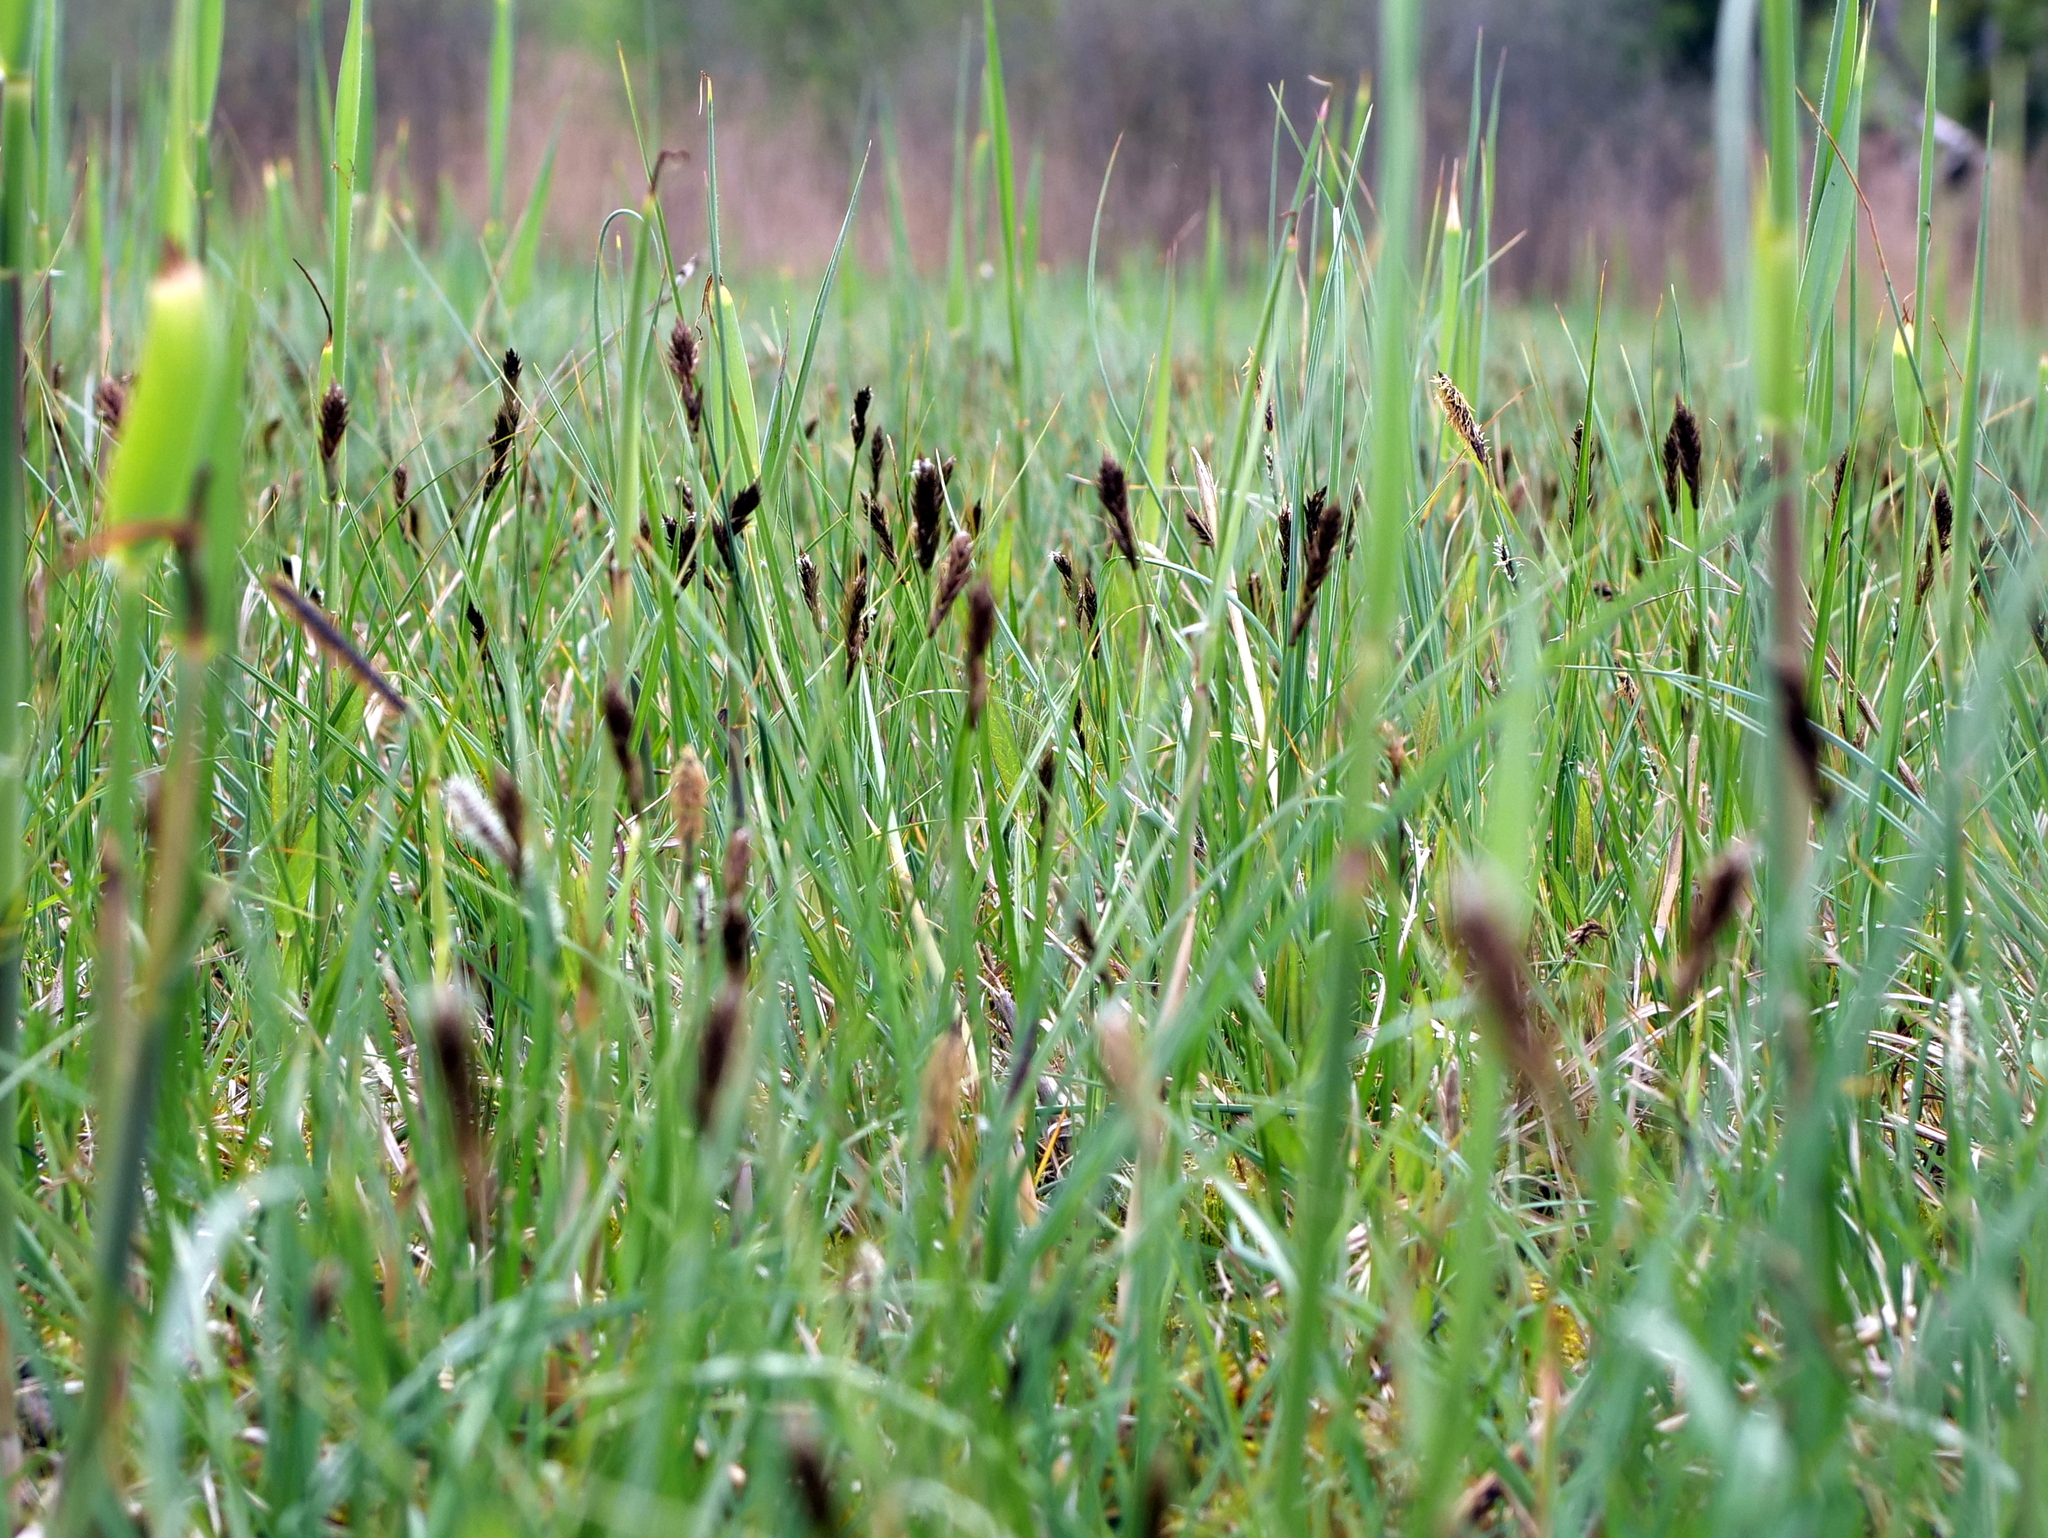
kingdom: Plantae
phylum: Tracheophyta
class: Liliopsida
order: Poales
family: Cyperaceae
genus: Carex
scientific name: Carex disticha
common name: Brown sedge
